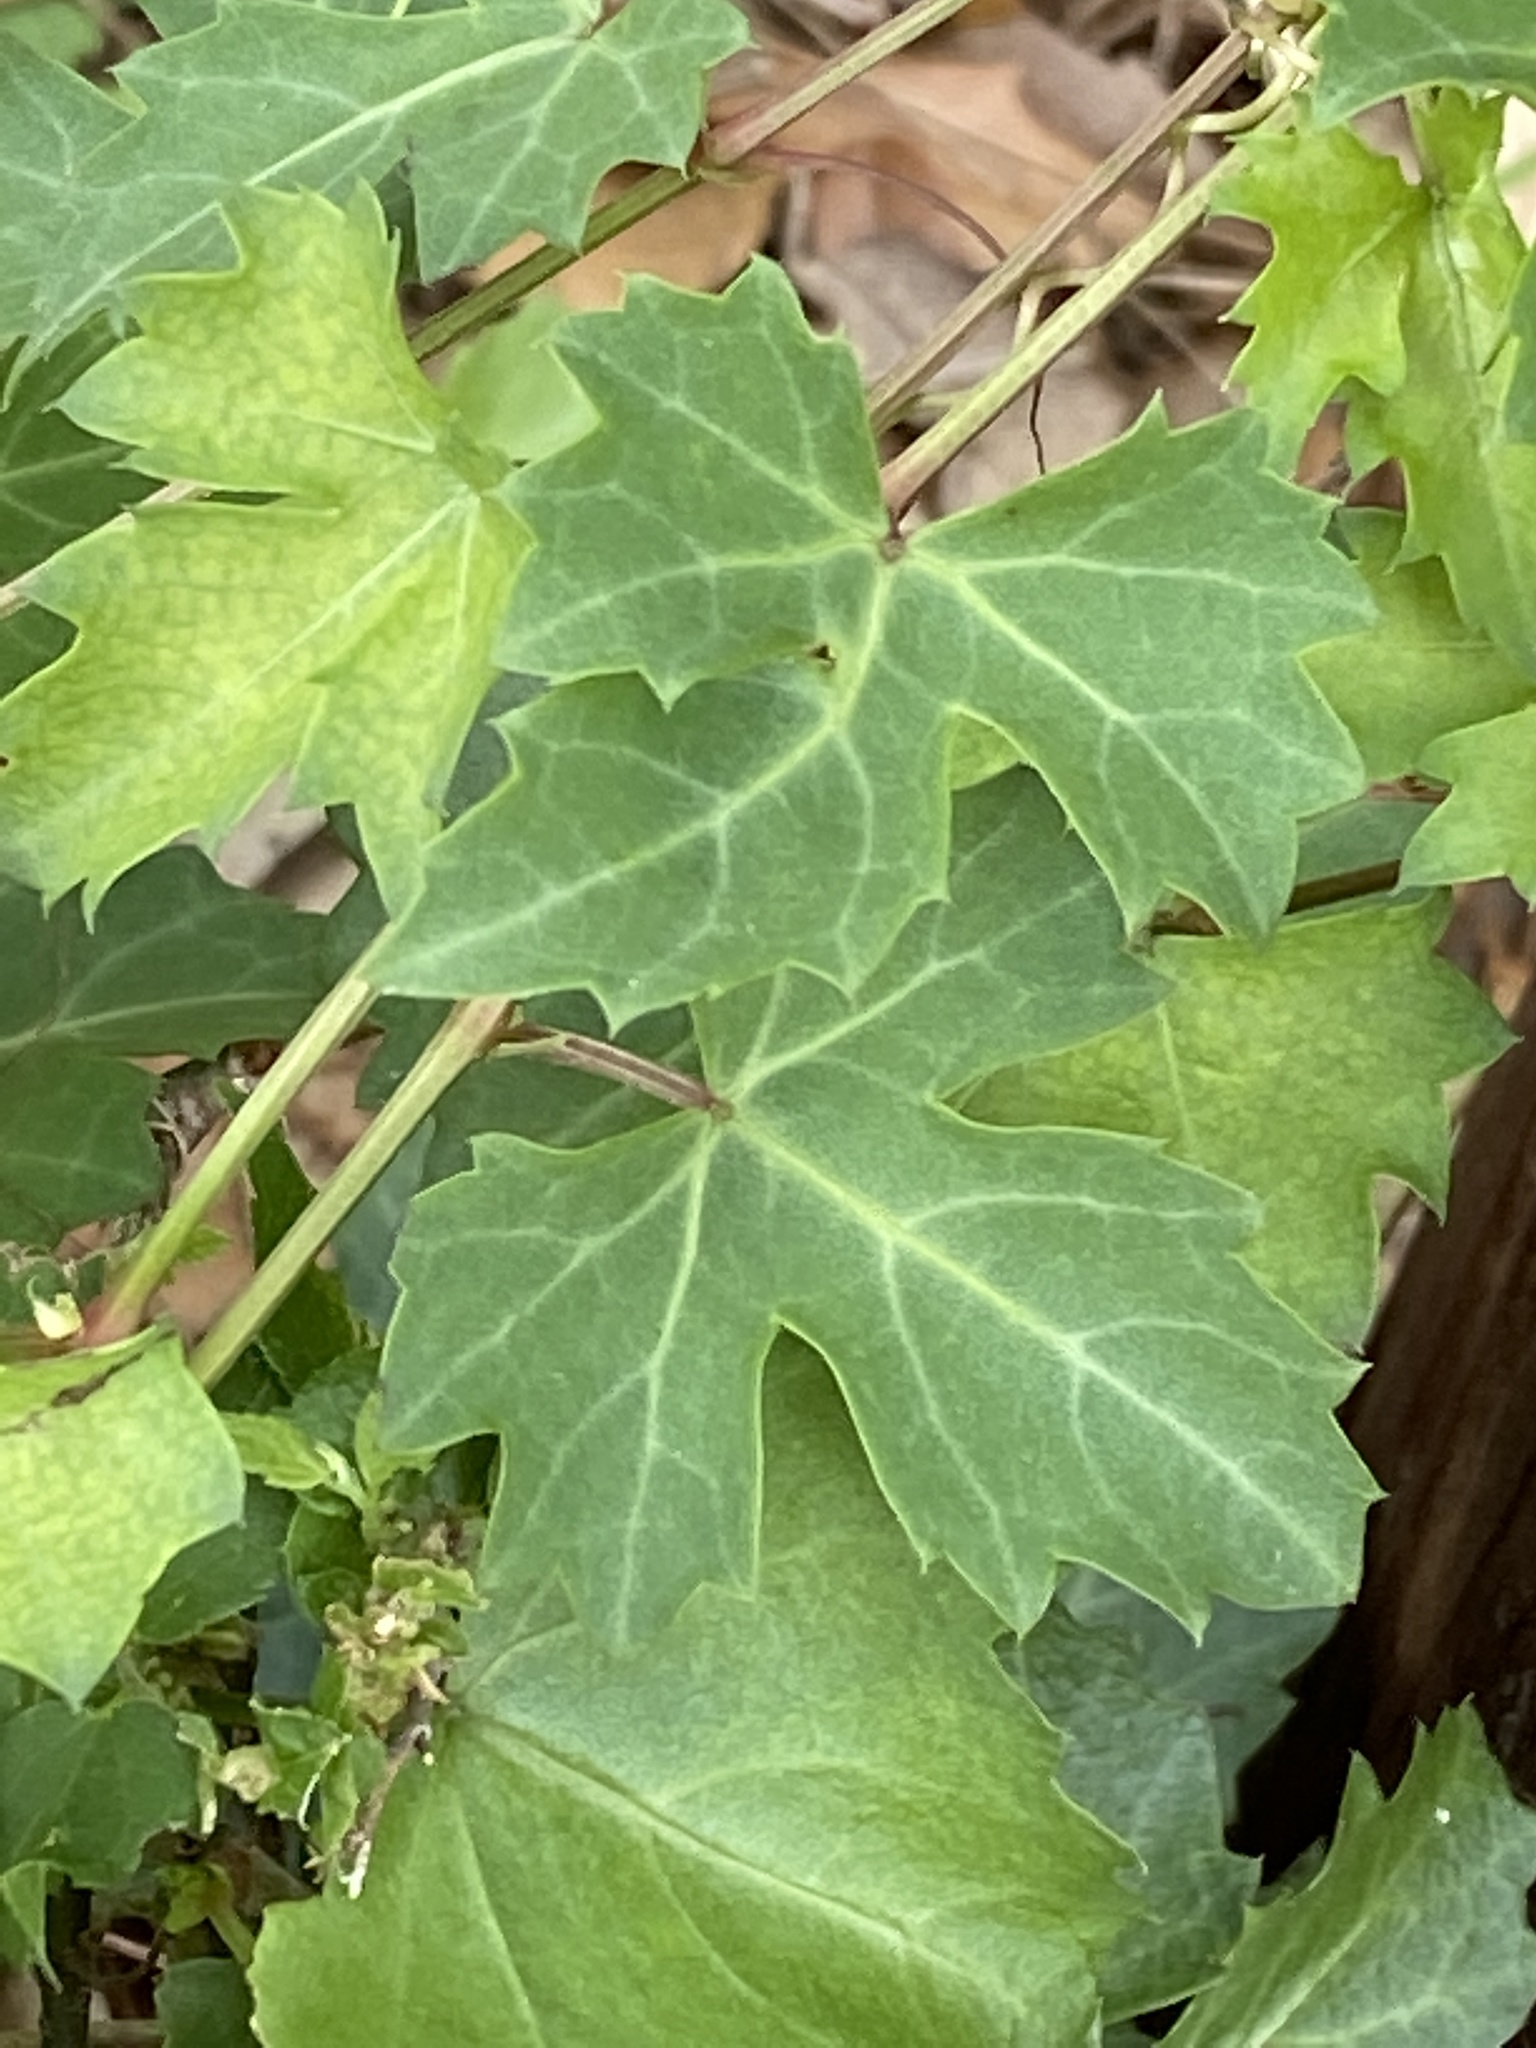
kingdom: Plantae
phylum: Tracheophyta
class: Magnoliopsida
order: Vitales
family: Vitaceae
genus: Cissus
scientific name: Cissus trifoliata
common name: Vine-sorrel
